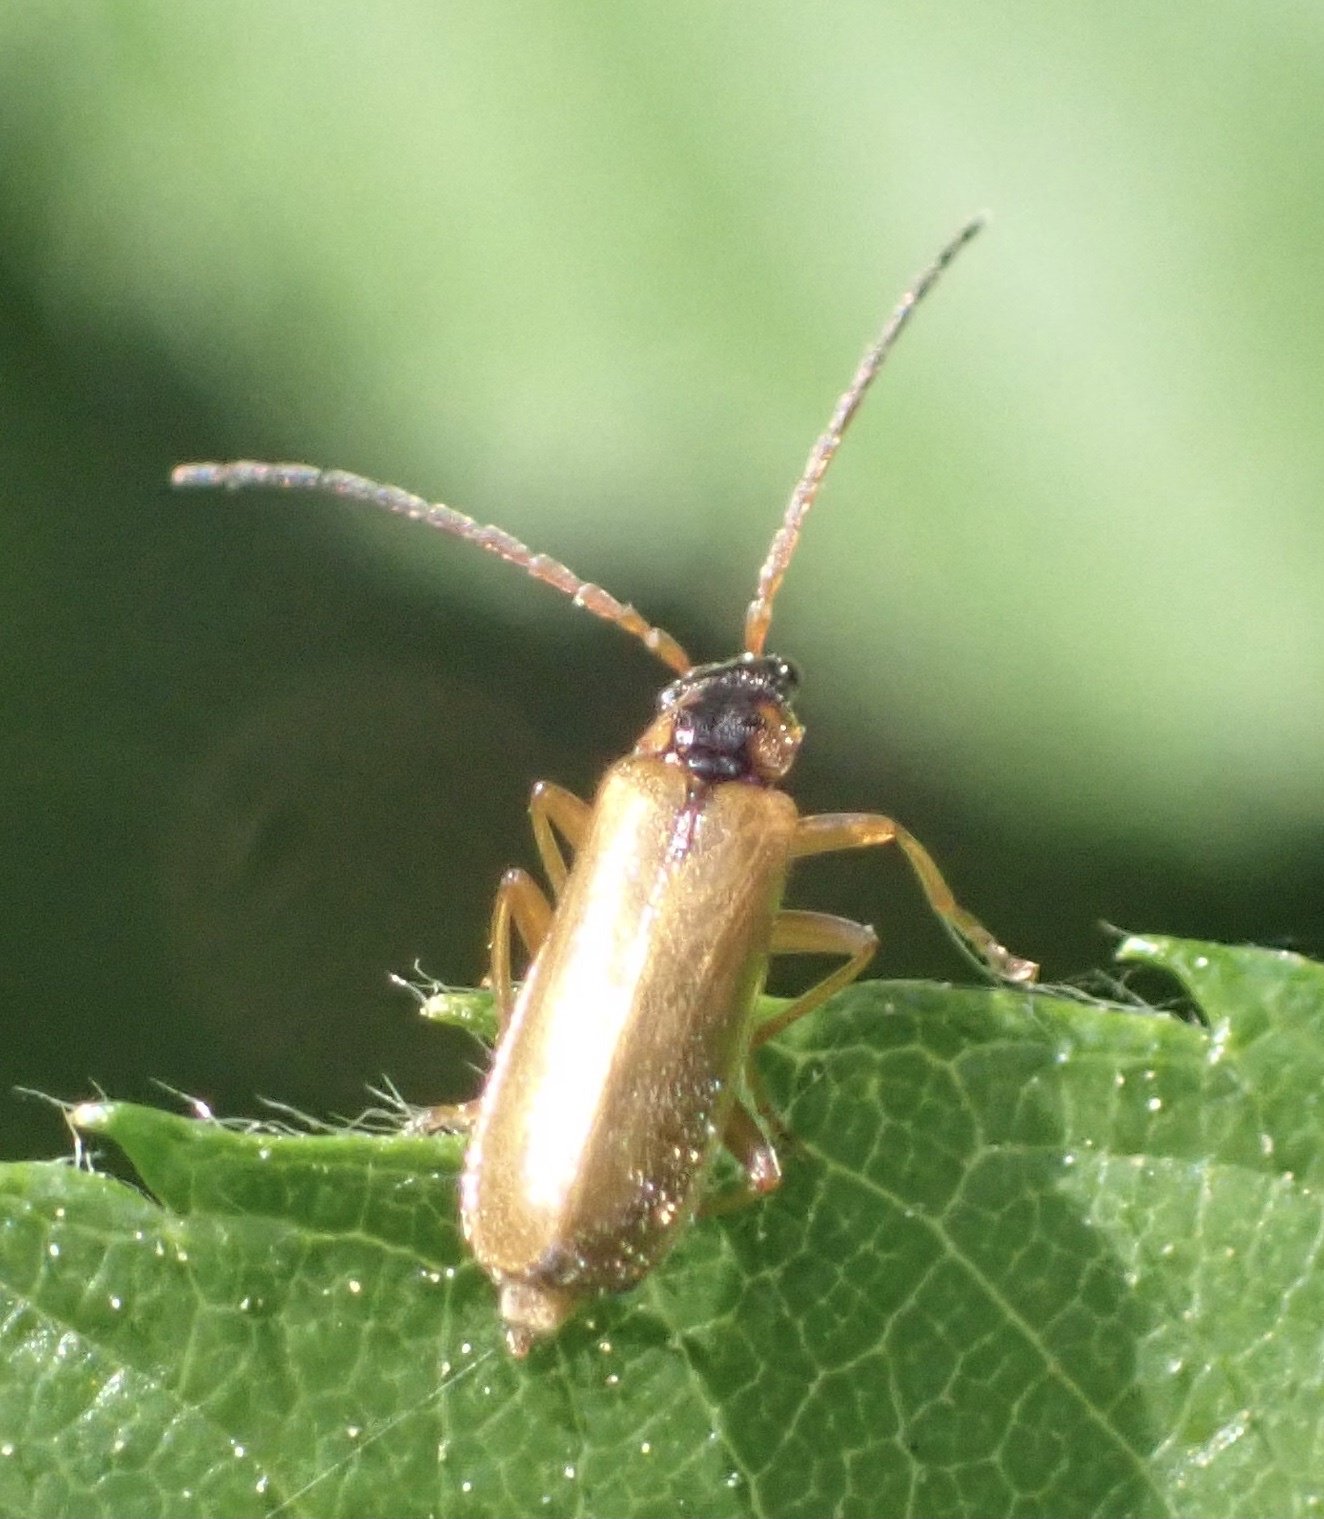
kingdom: Animalia
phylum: Arthropoda
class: Insecta
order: Coleoptera
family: Cantharidae
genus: Rhagonycha
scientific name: Rhagonycha testacea
